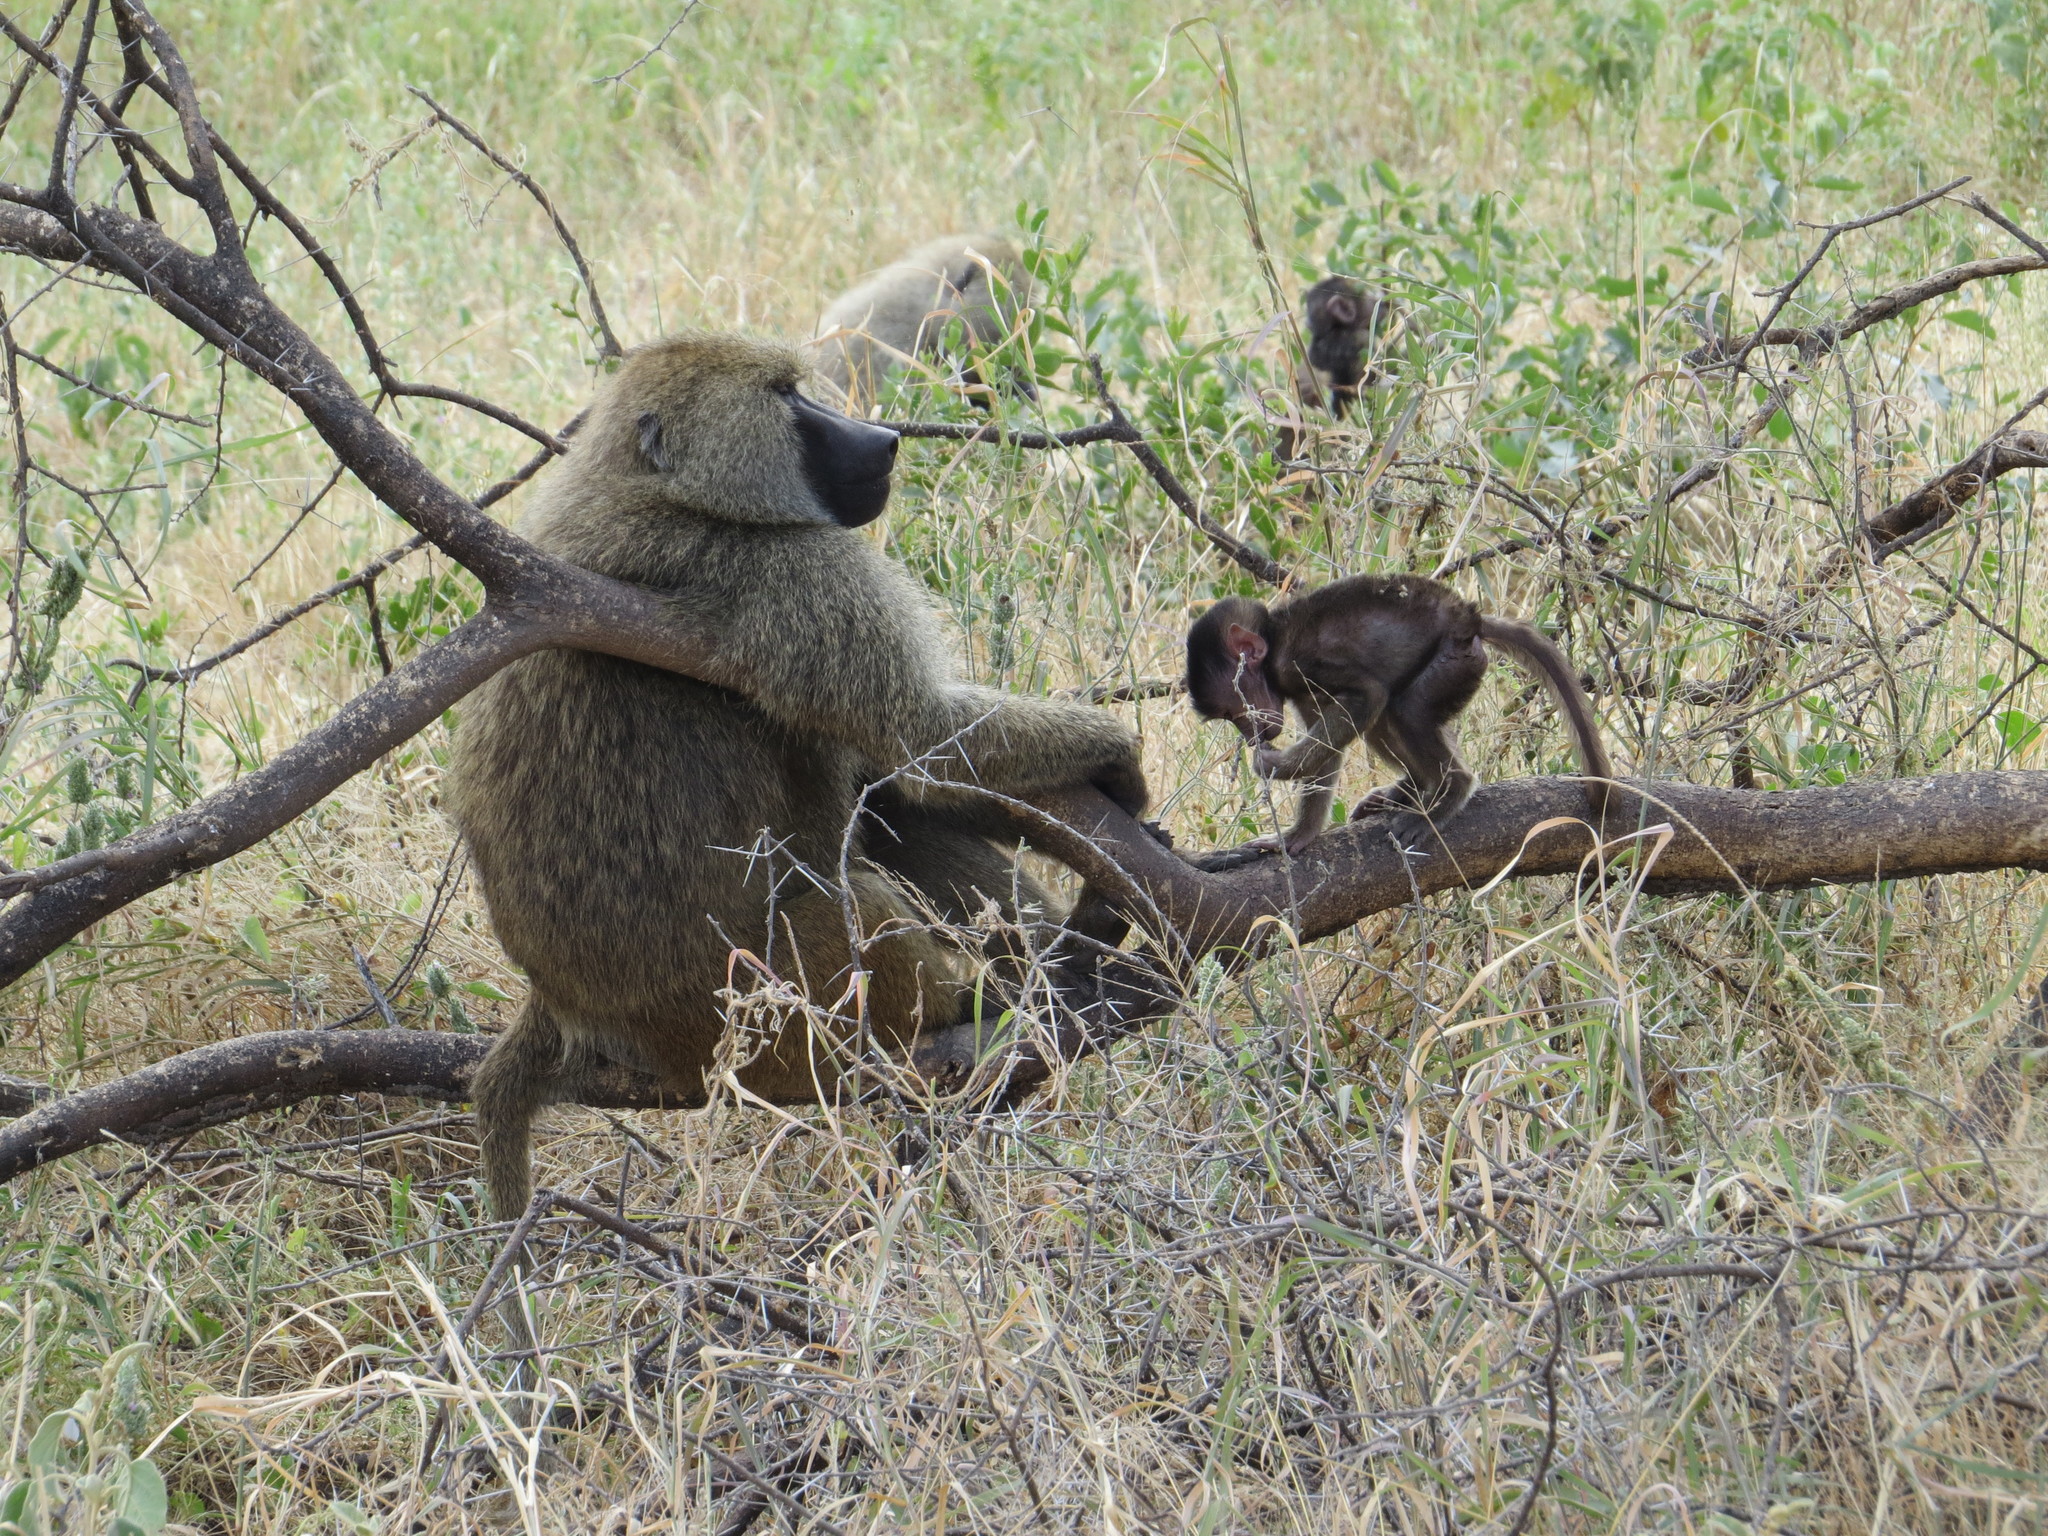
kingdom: Animalia
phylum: Chordata
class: Mammalia
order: Primates
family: Cercopithecidae
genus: Papio
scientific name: Papio anubis
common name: Olive baboon
